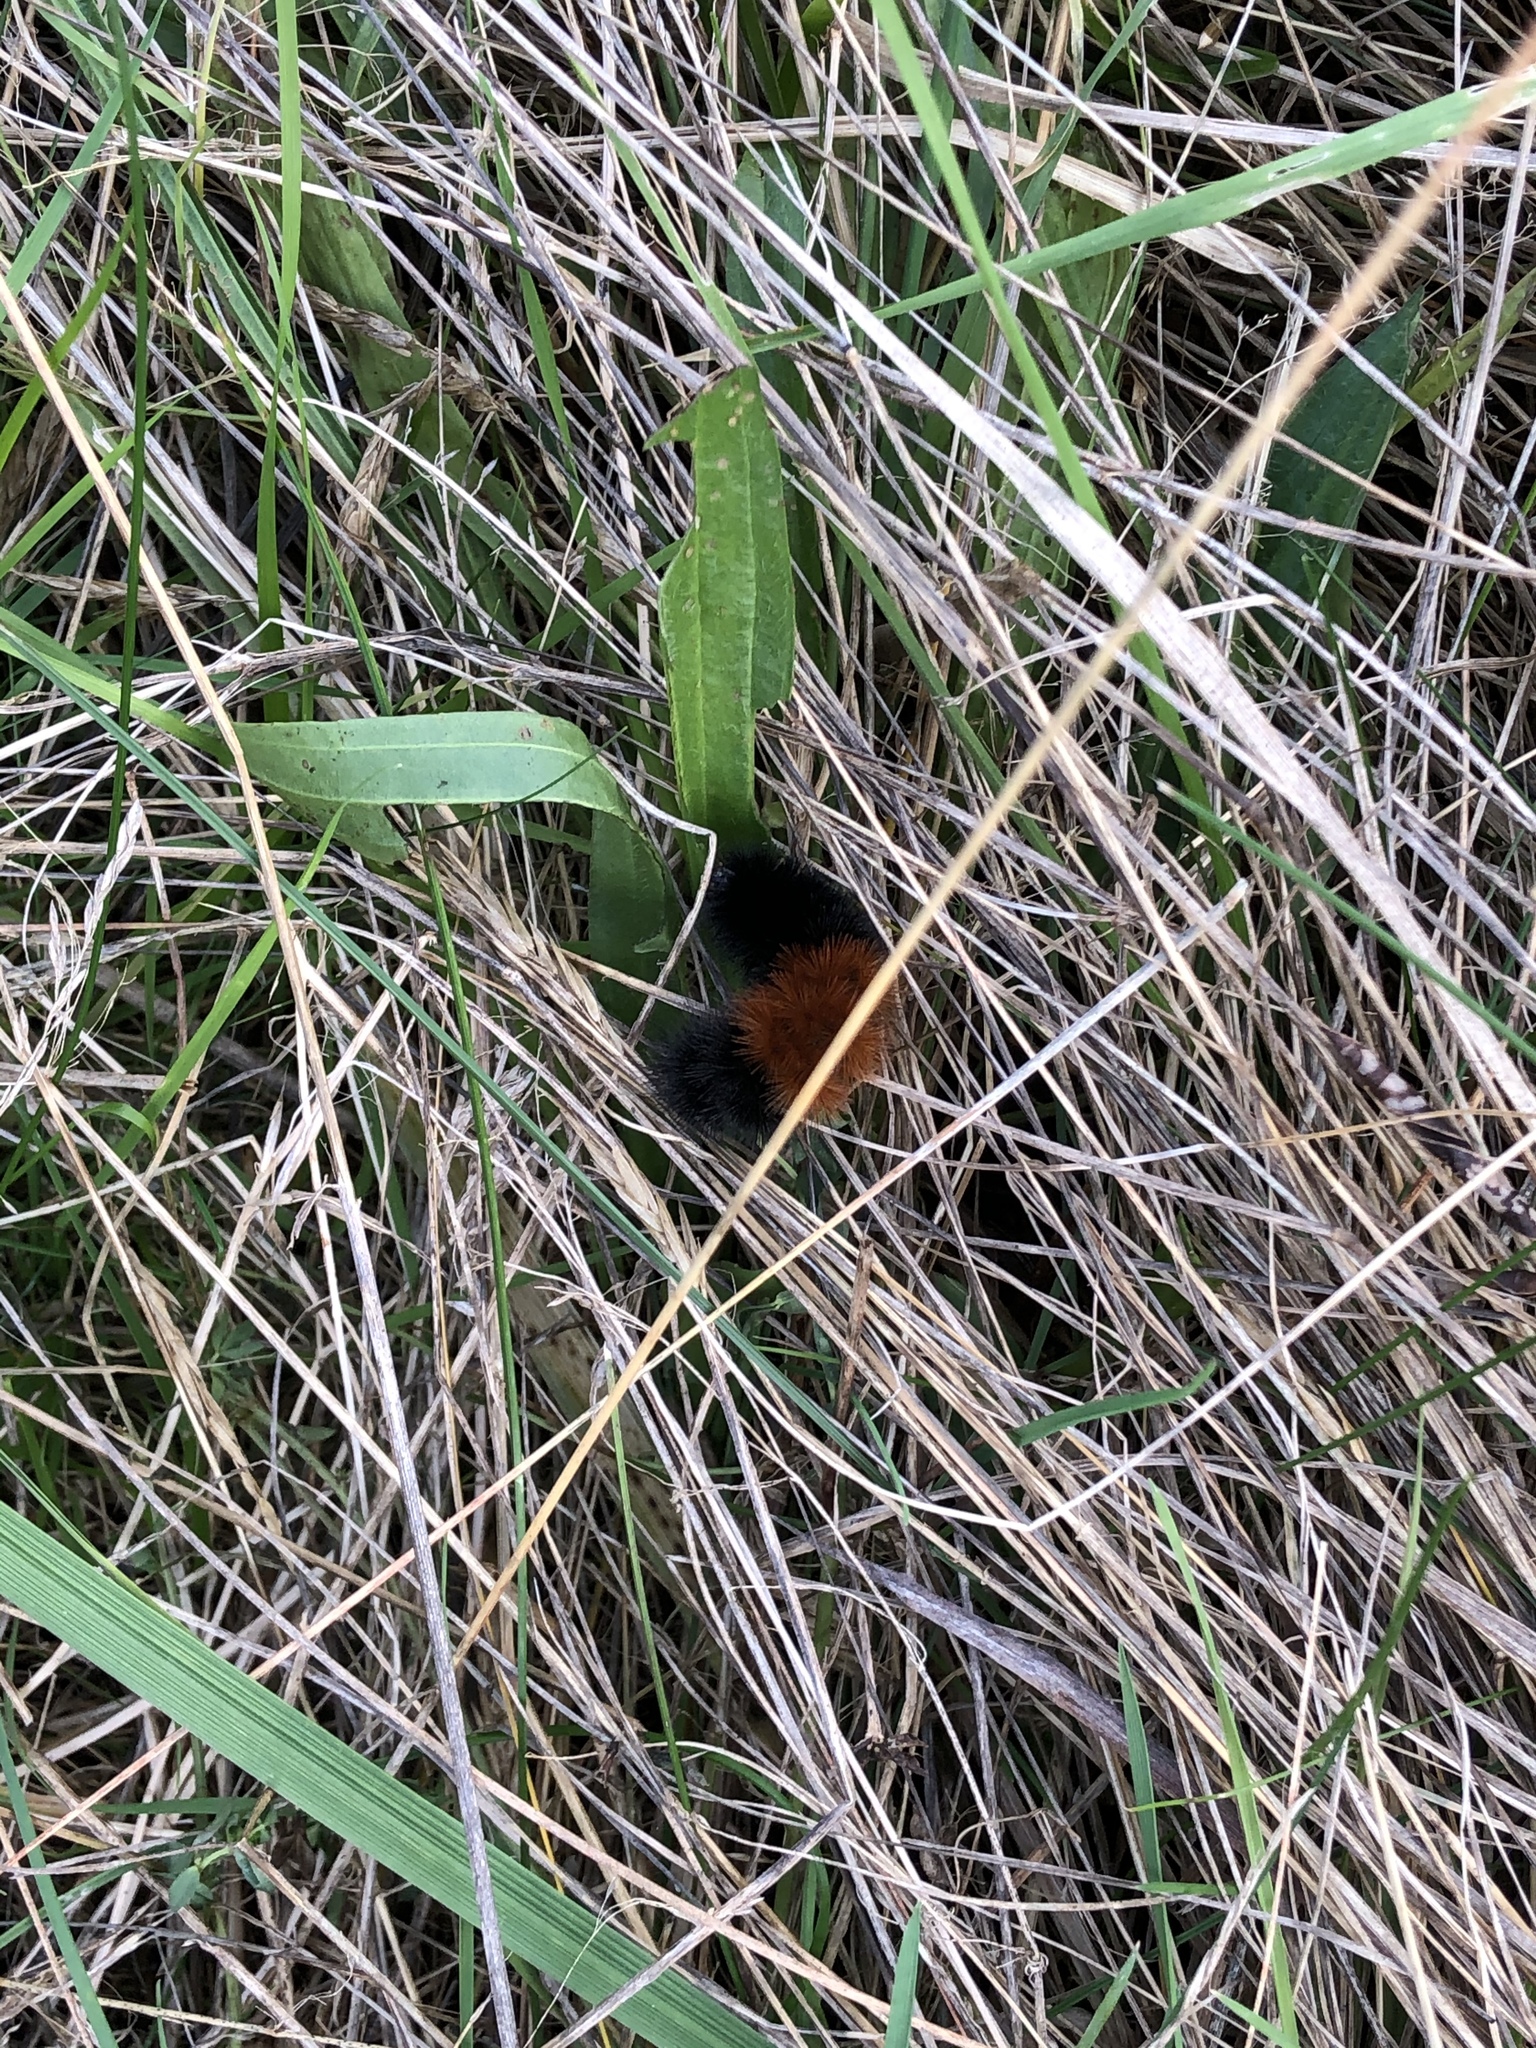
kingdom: Animalia
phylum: Arthropoda
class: Insecta
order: Lepidoptera
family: Erebidae
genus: Pyrrharctia
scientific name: Pyrrharctia isabella
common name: Isabella tiger moth
